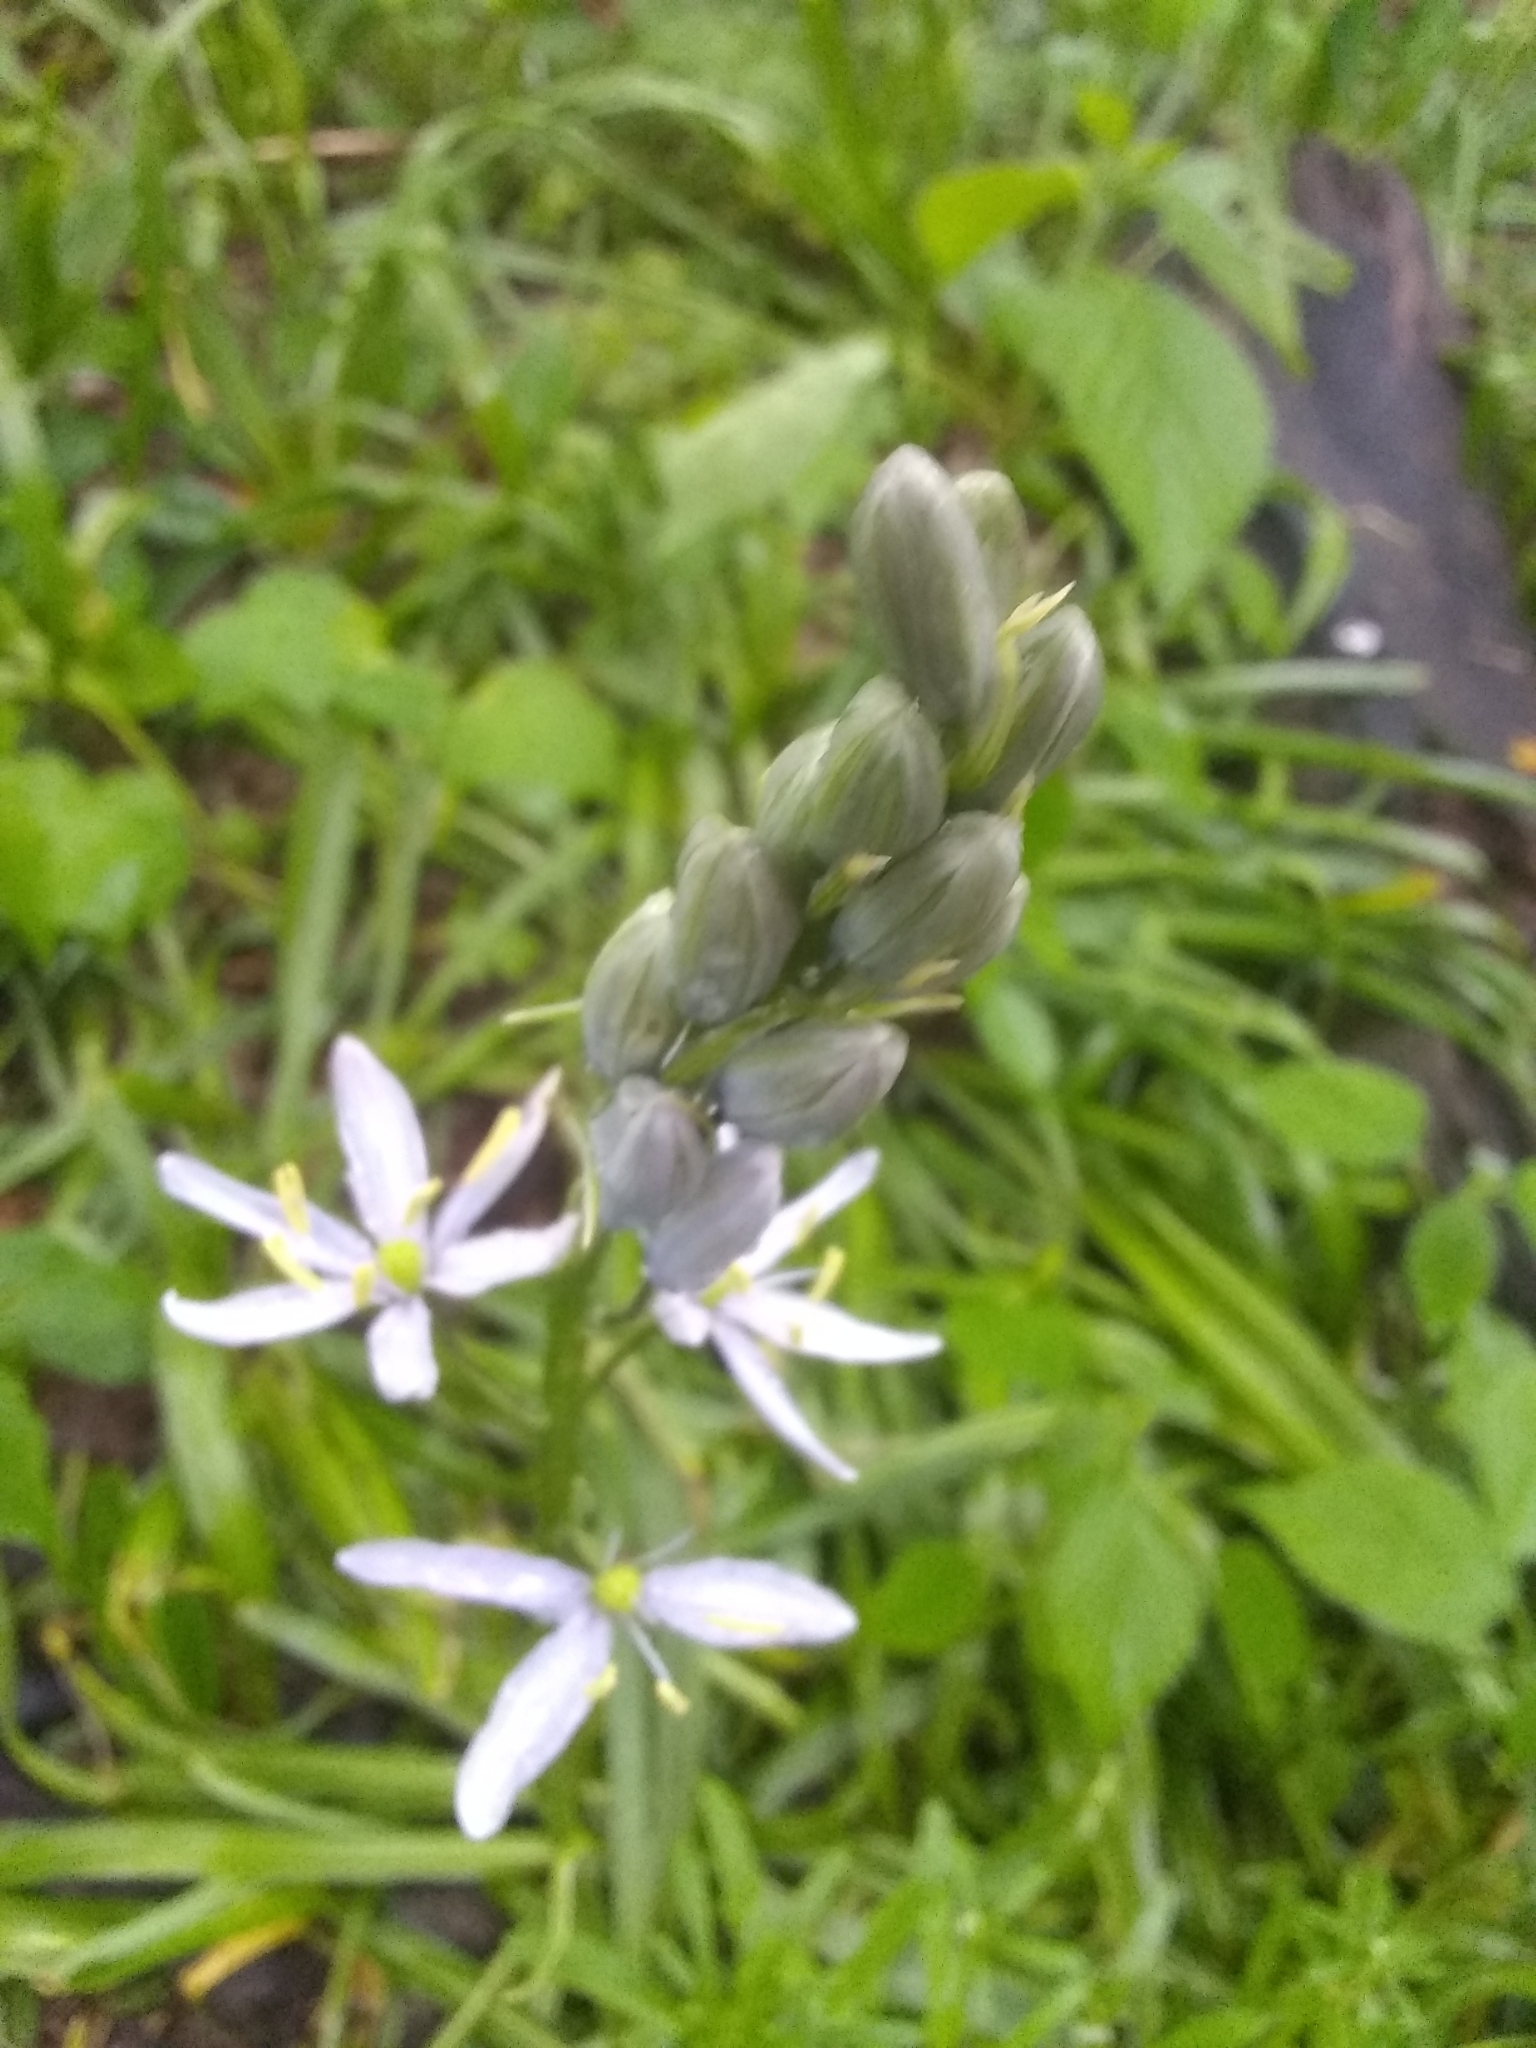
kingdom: Plantae
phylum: Tracheophyta
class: Liliopsida
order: Asparagales
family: Asparagaceae
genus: Camassia
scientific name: Camassia scilloides
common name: Wild hyacinth
